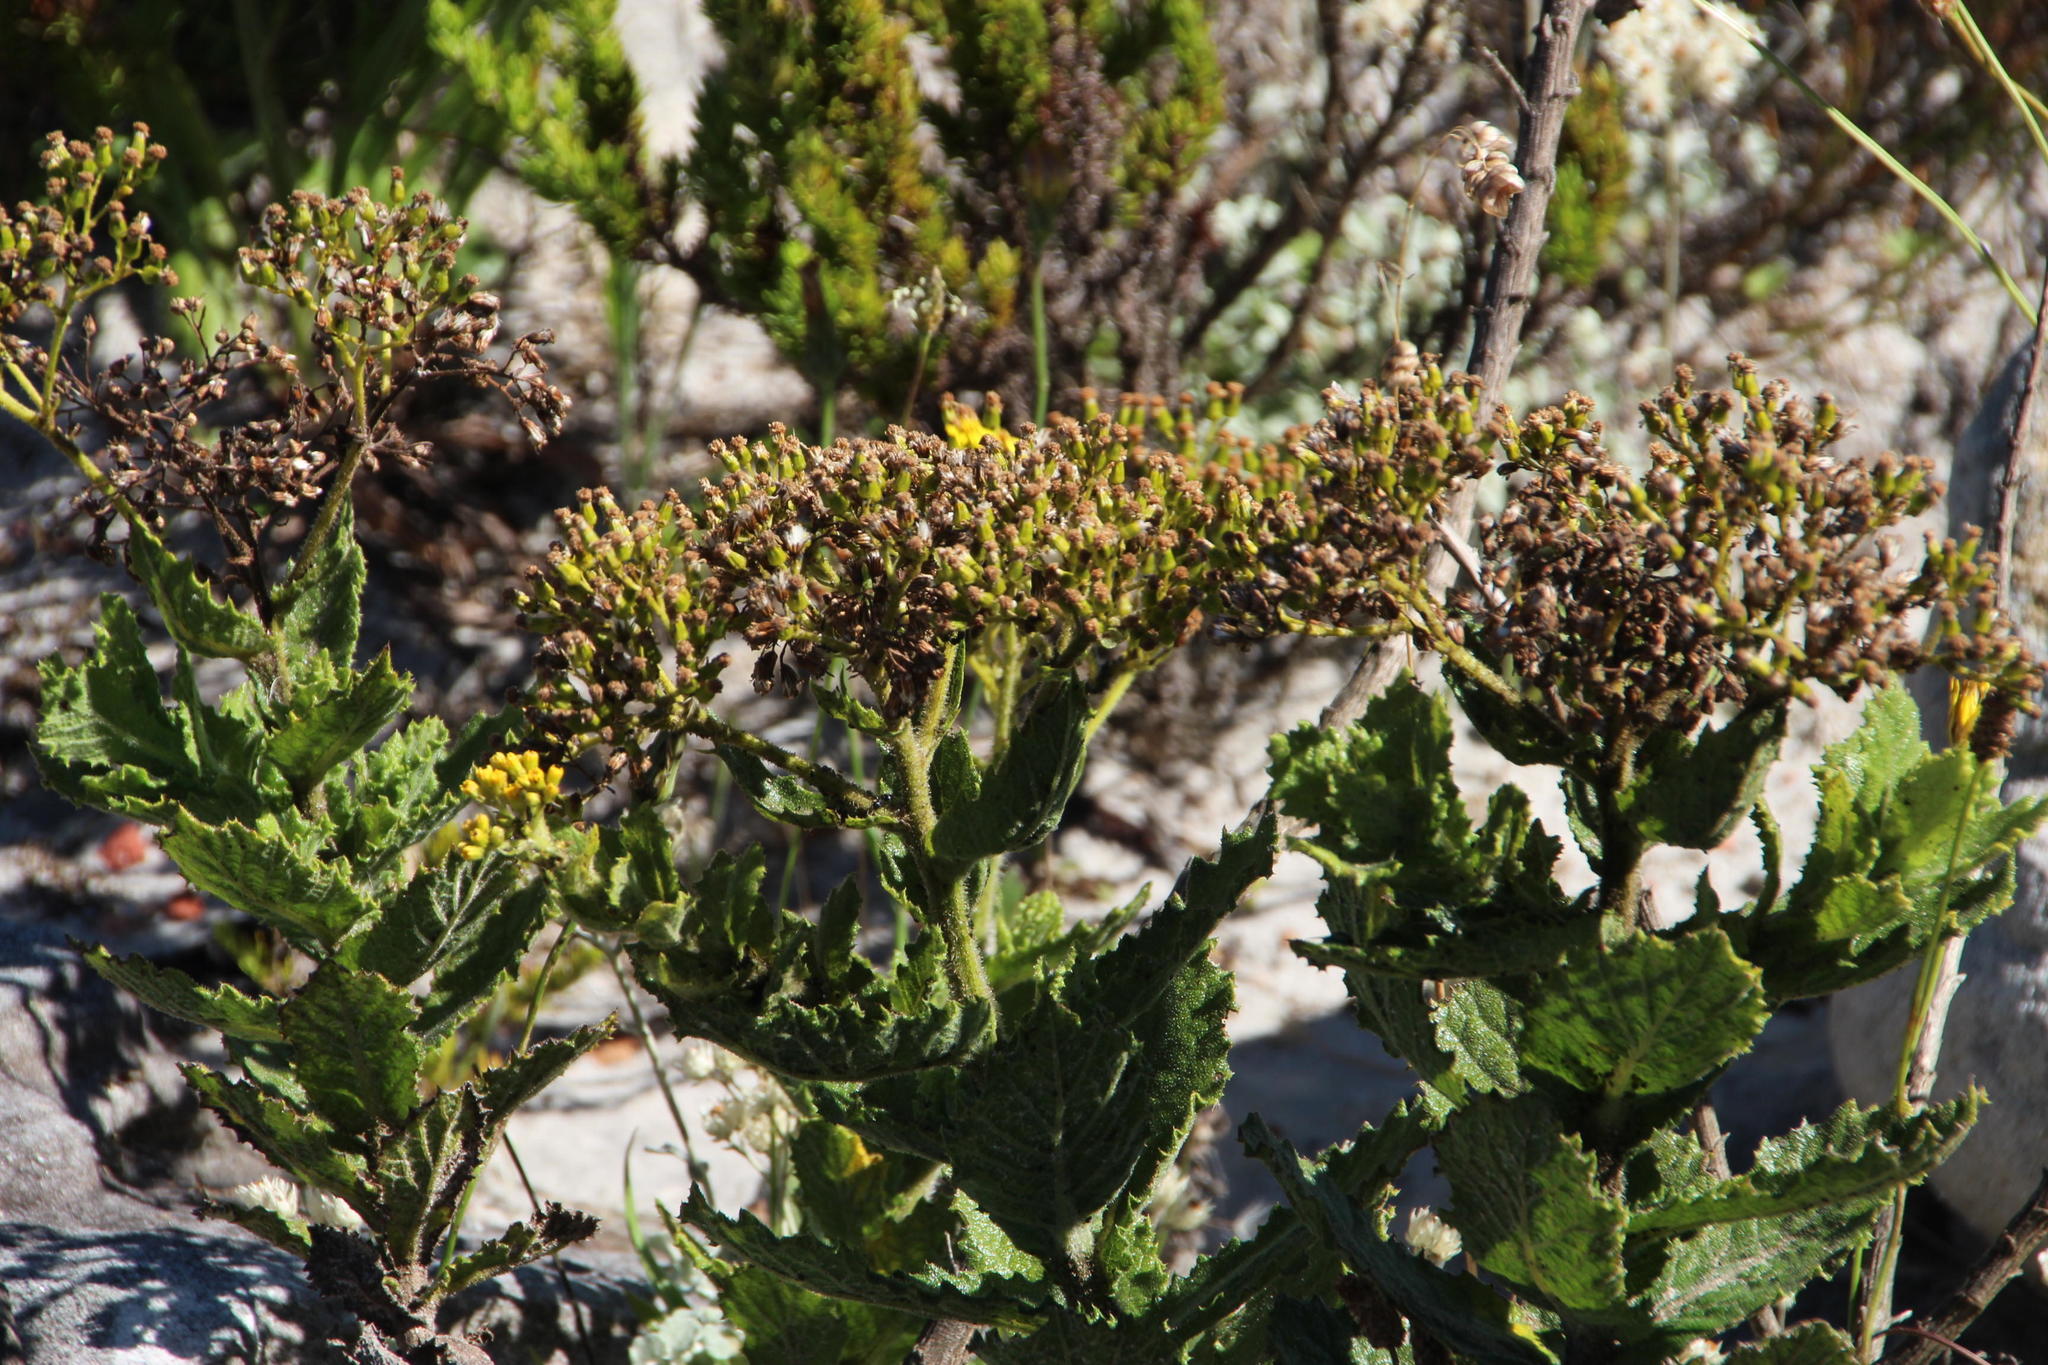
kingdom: Plantae
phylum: Tracheophyta
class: Magnoliopsida
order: Asterales
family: Asteraceae
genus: Senecio
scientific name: Senecio rigidus
